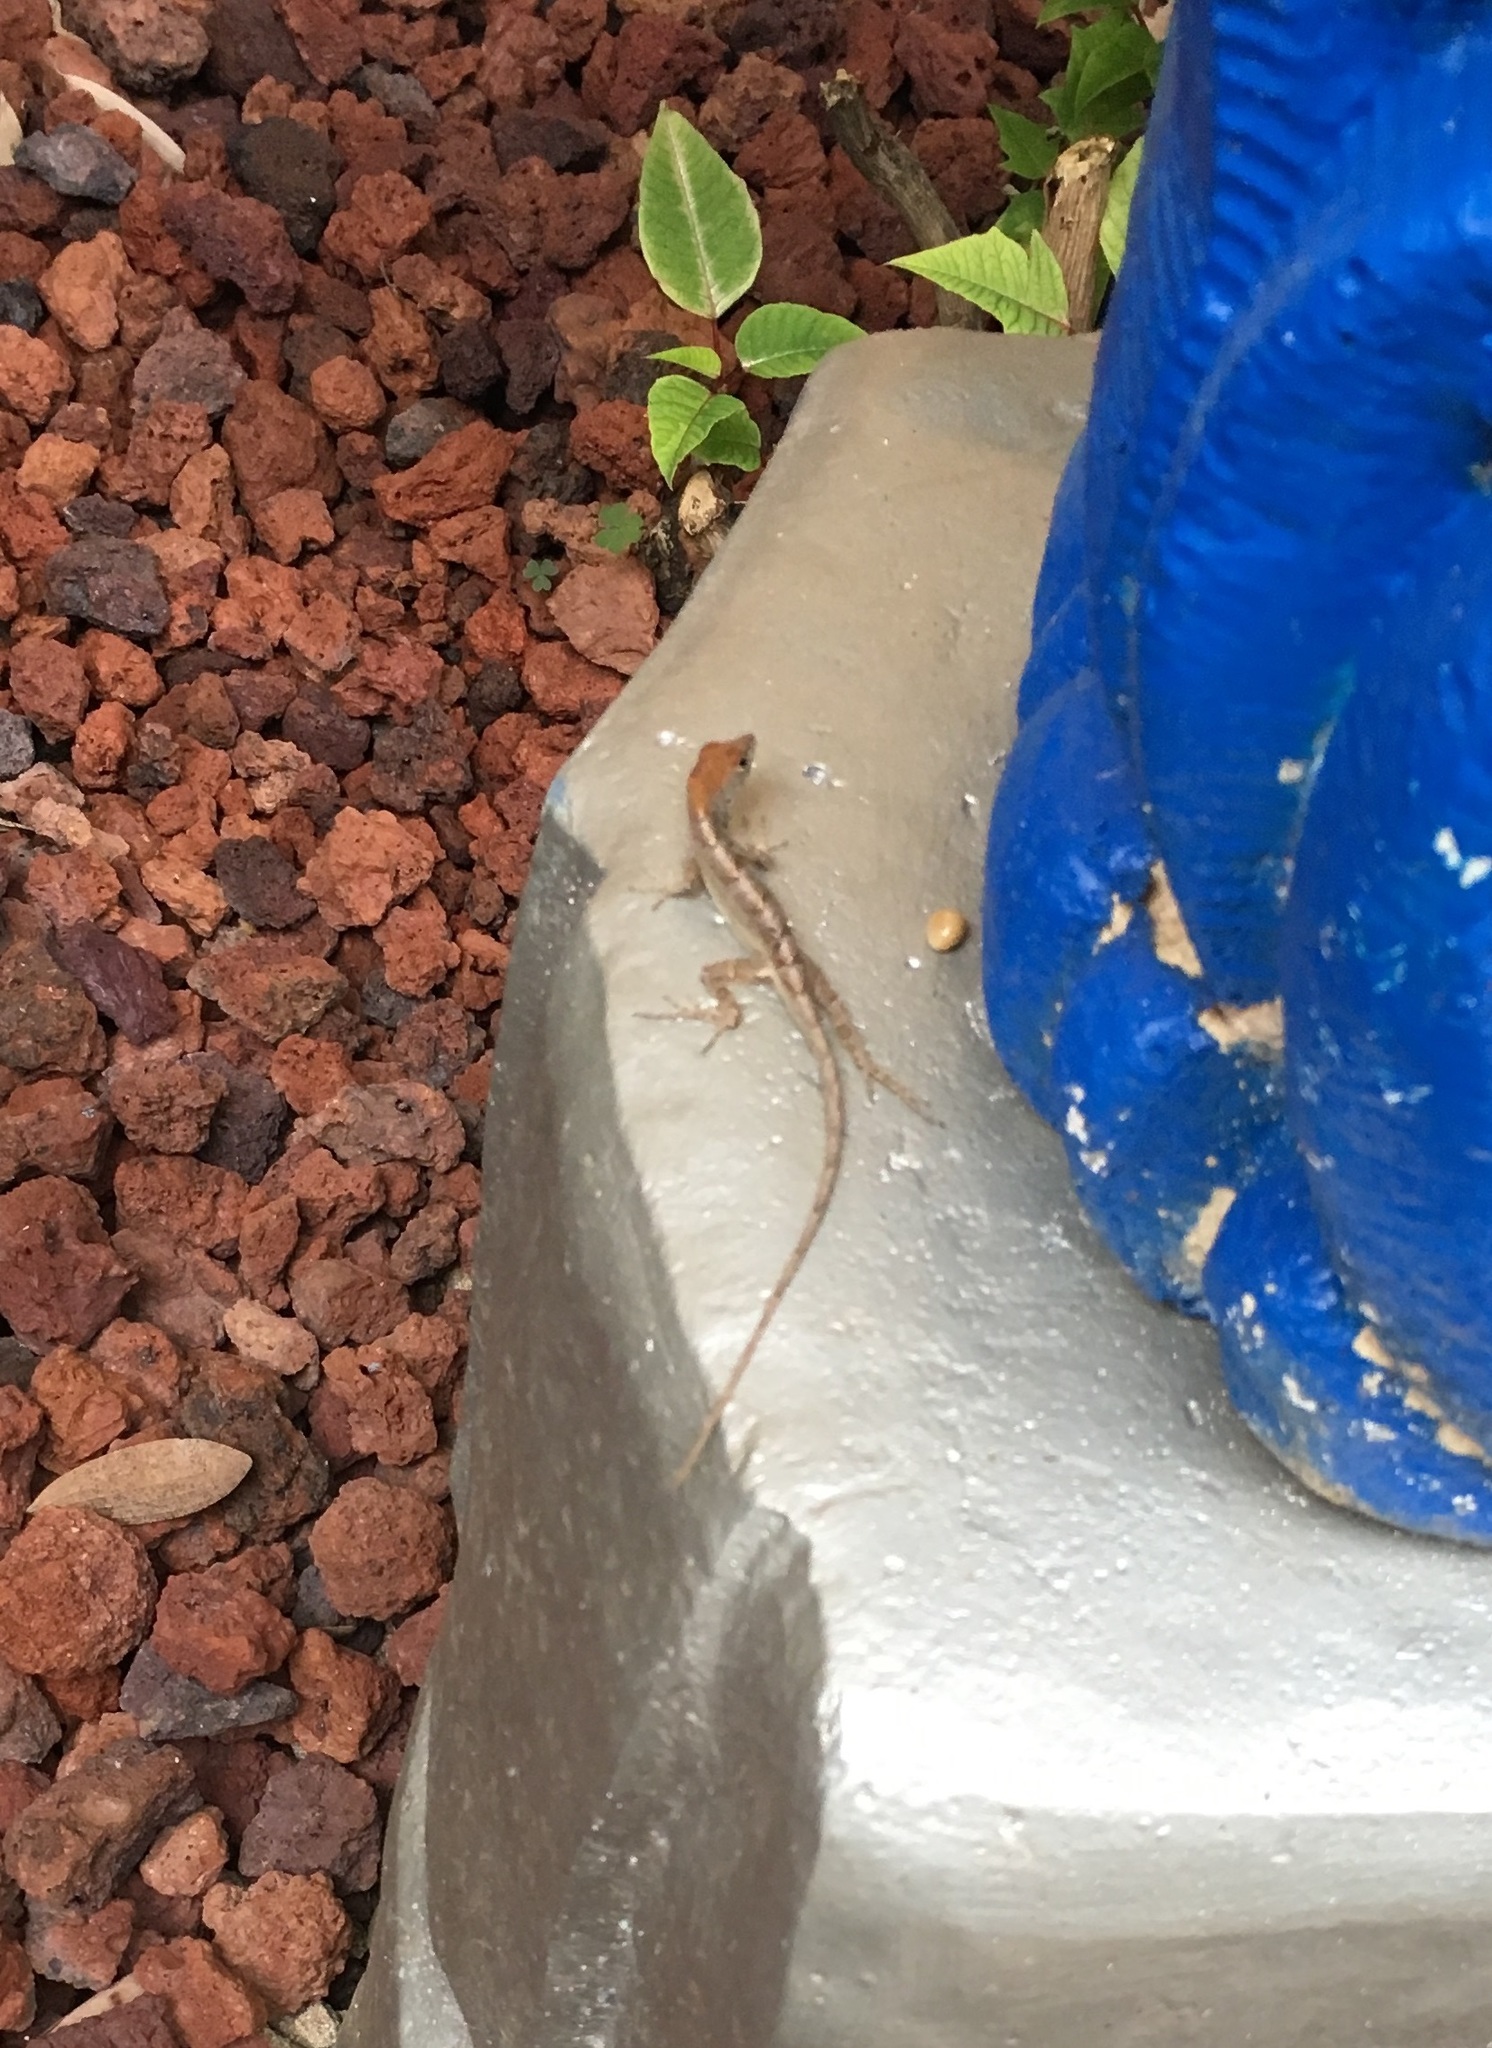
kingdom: Animalia
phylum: Chordata
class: Squamata
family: Dactyloidae
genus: Anolis
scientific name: Anolis sagrei
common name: Brown anole
